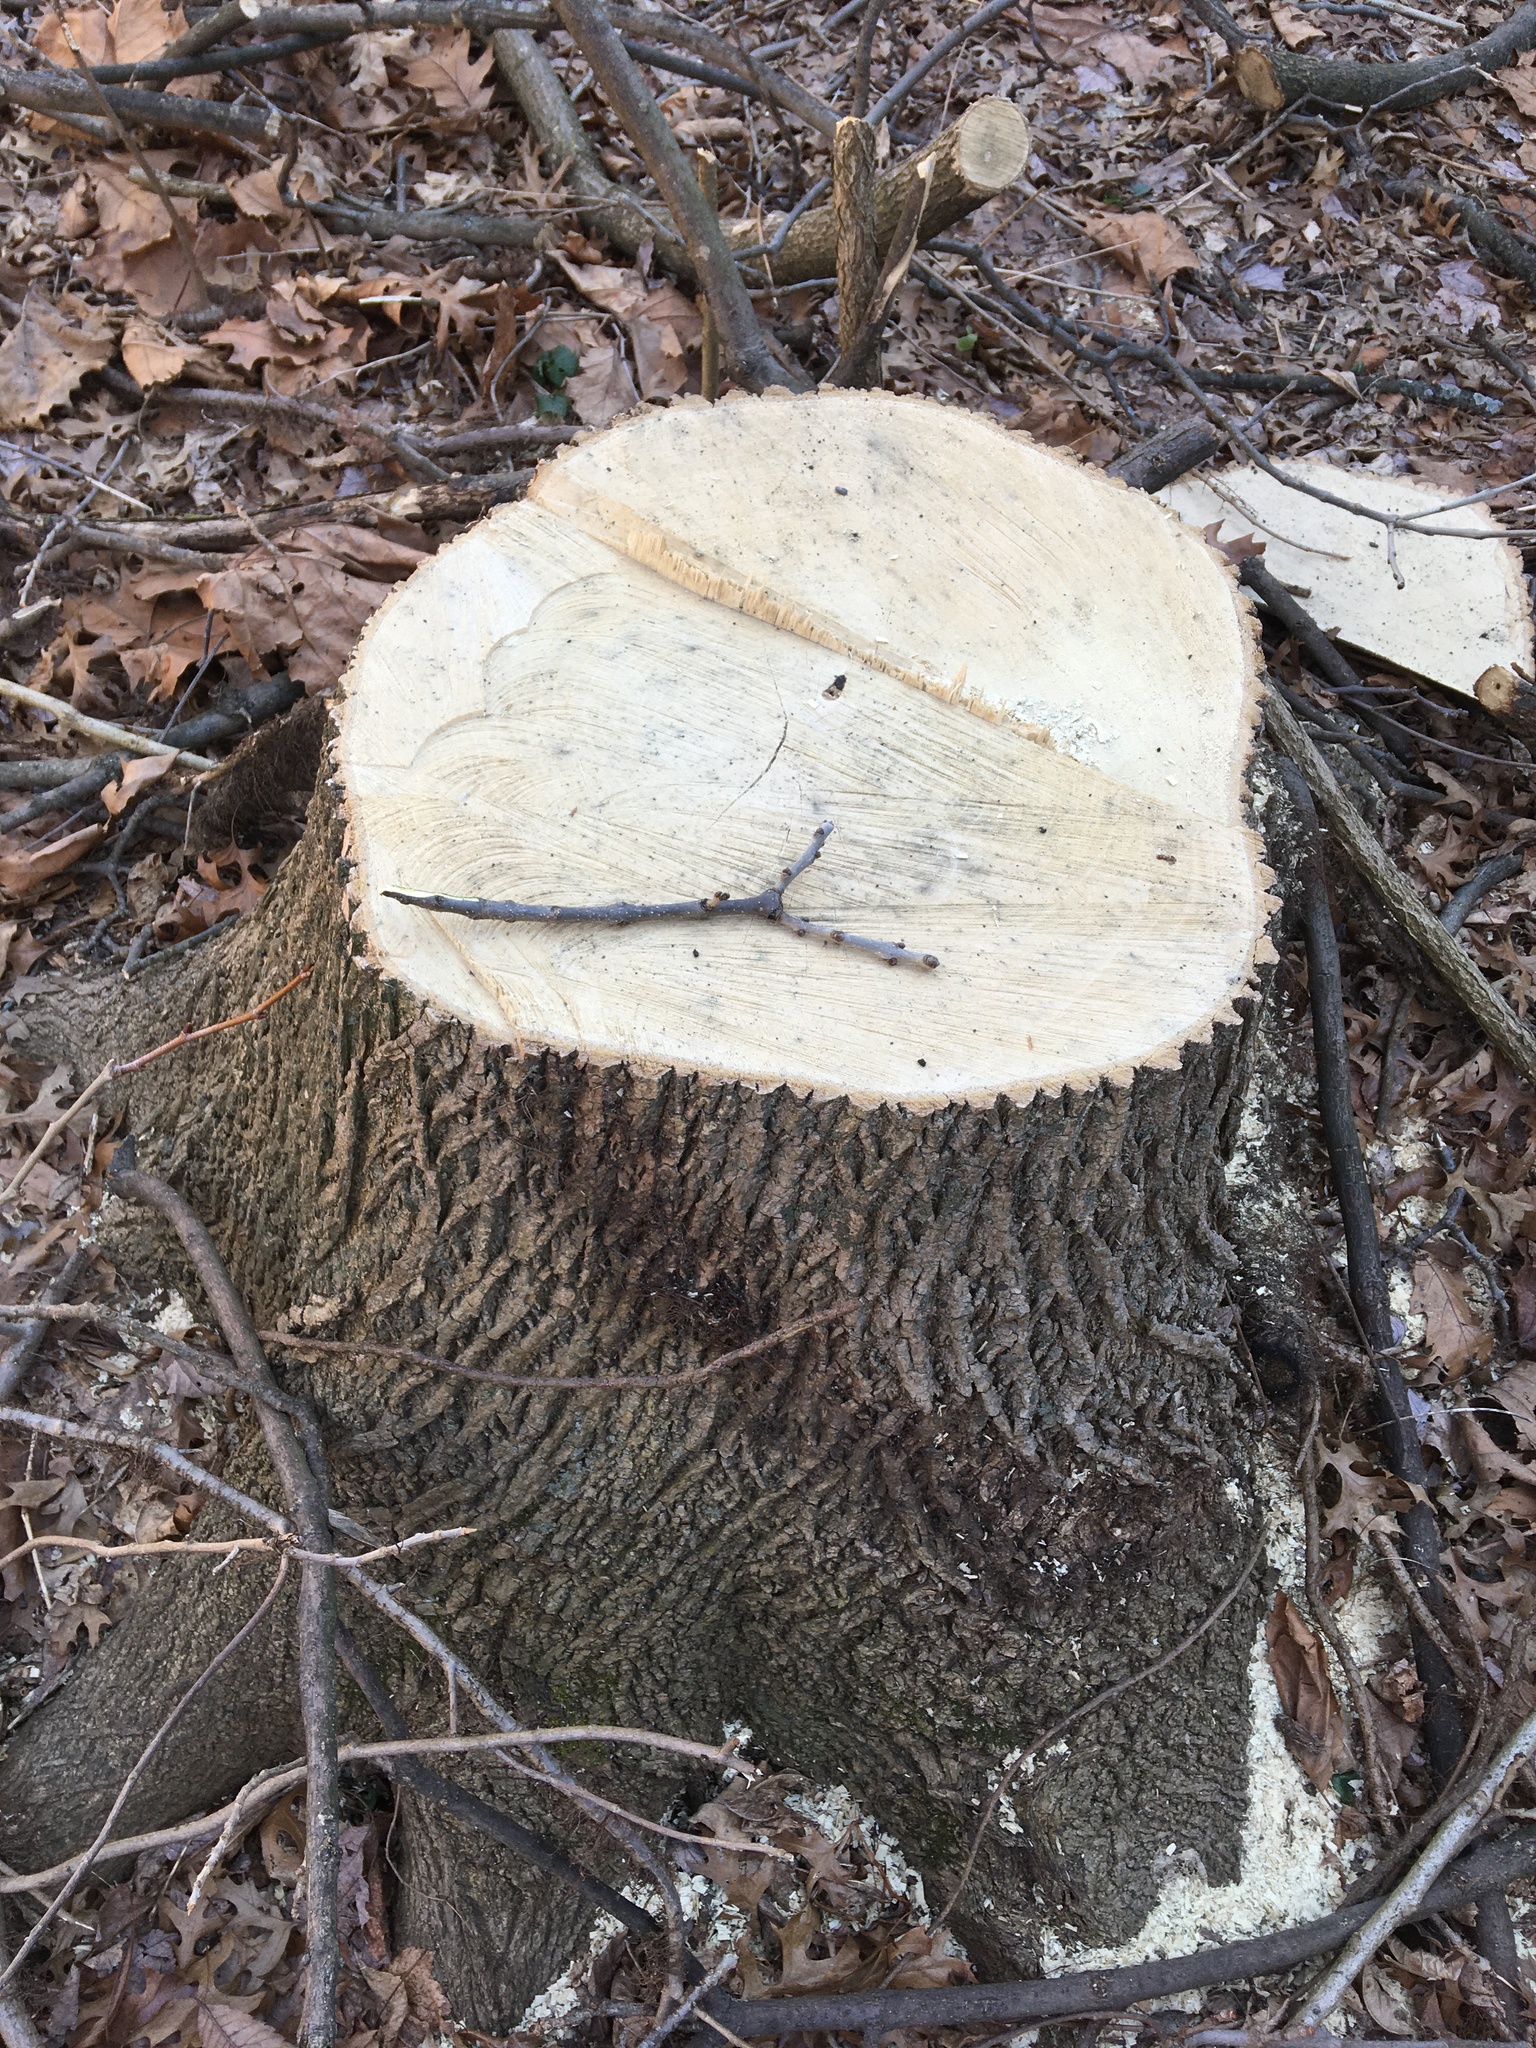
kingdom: Plantae
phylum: Tracheophyta
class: Magnoliopsida
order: Lamiales
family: Oleaceae
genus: Fraxinus
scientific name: Fraxinus pennsylvanica
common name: Green ash
